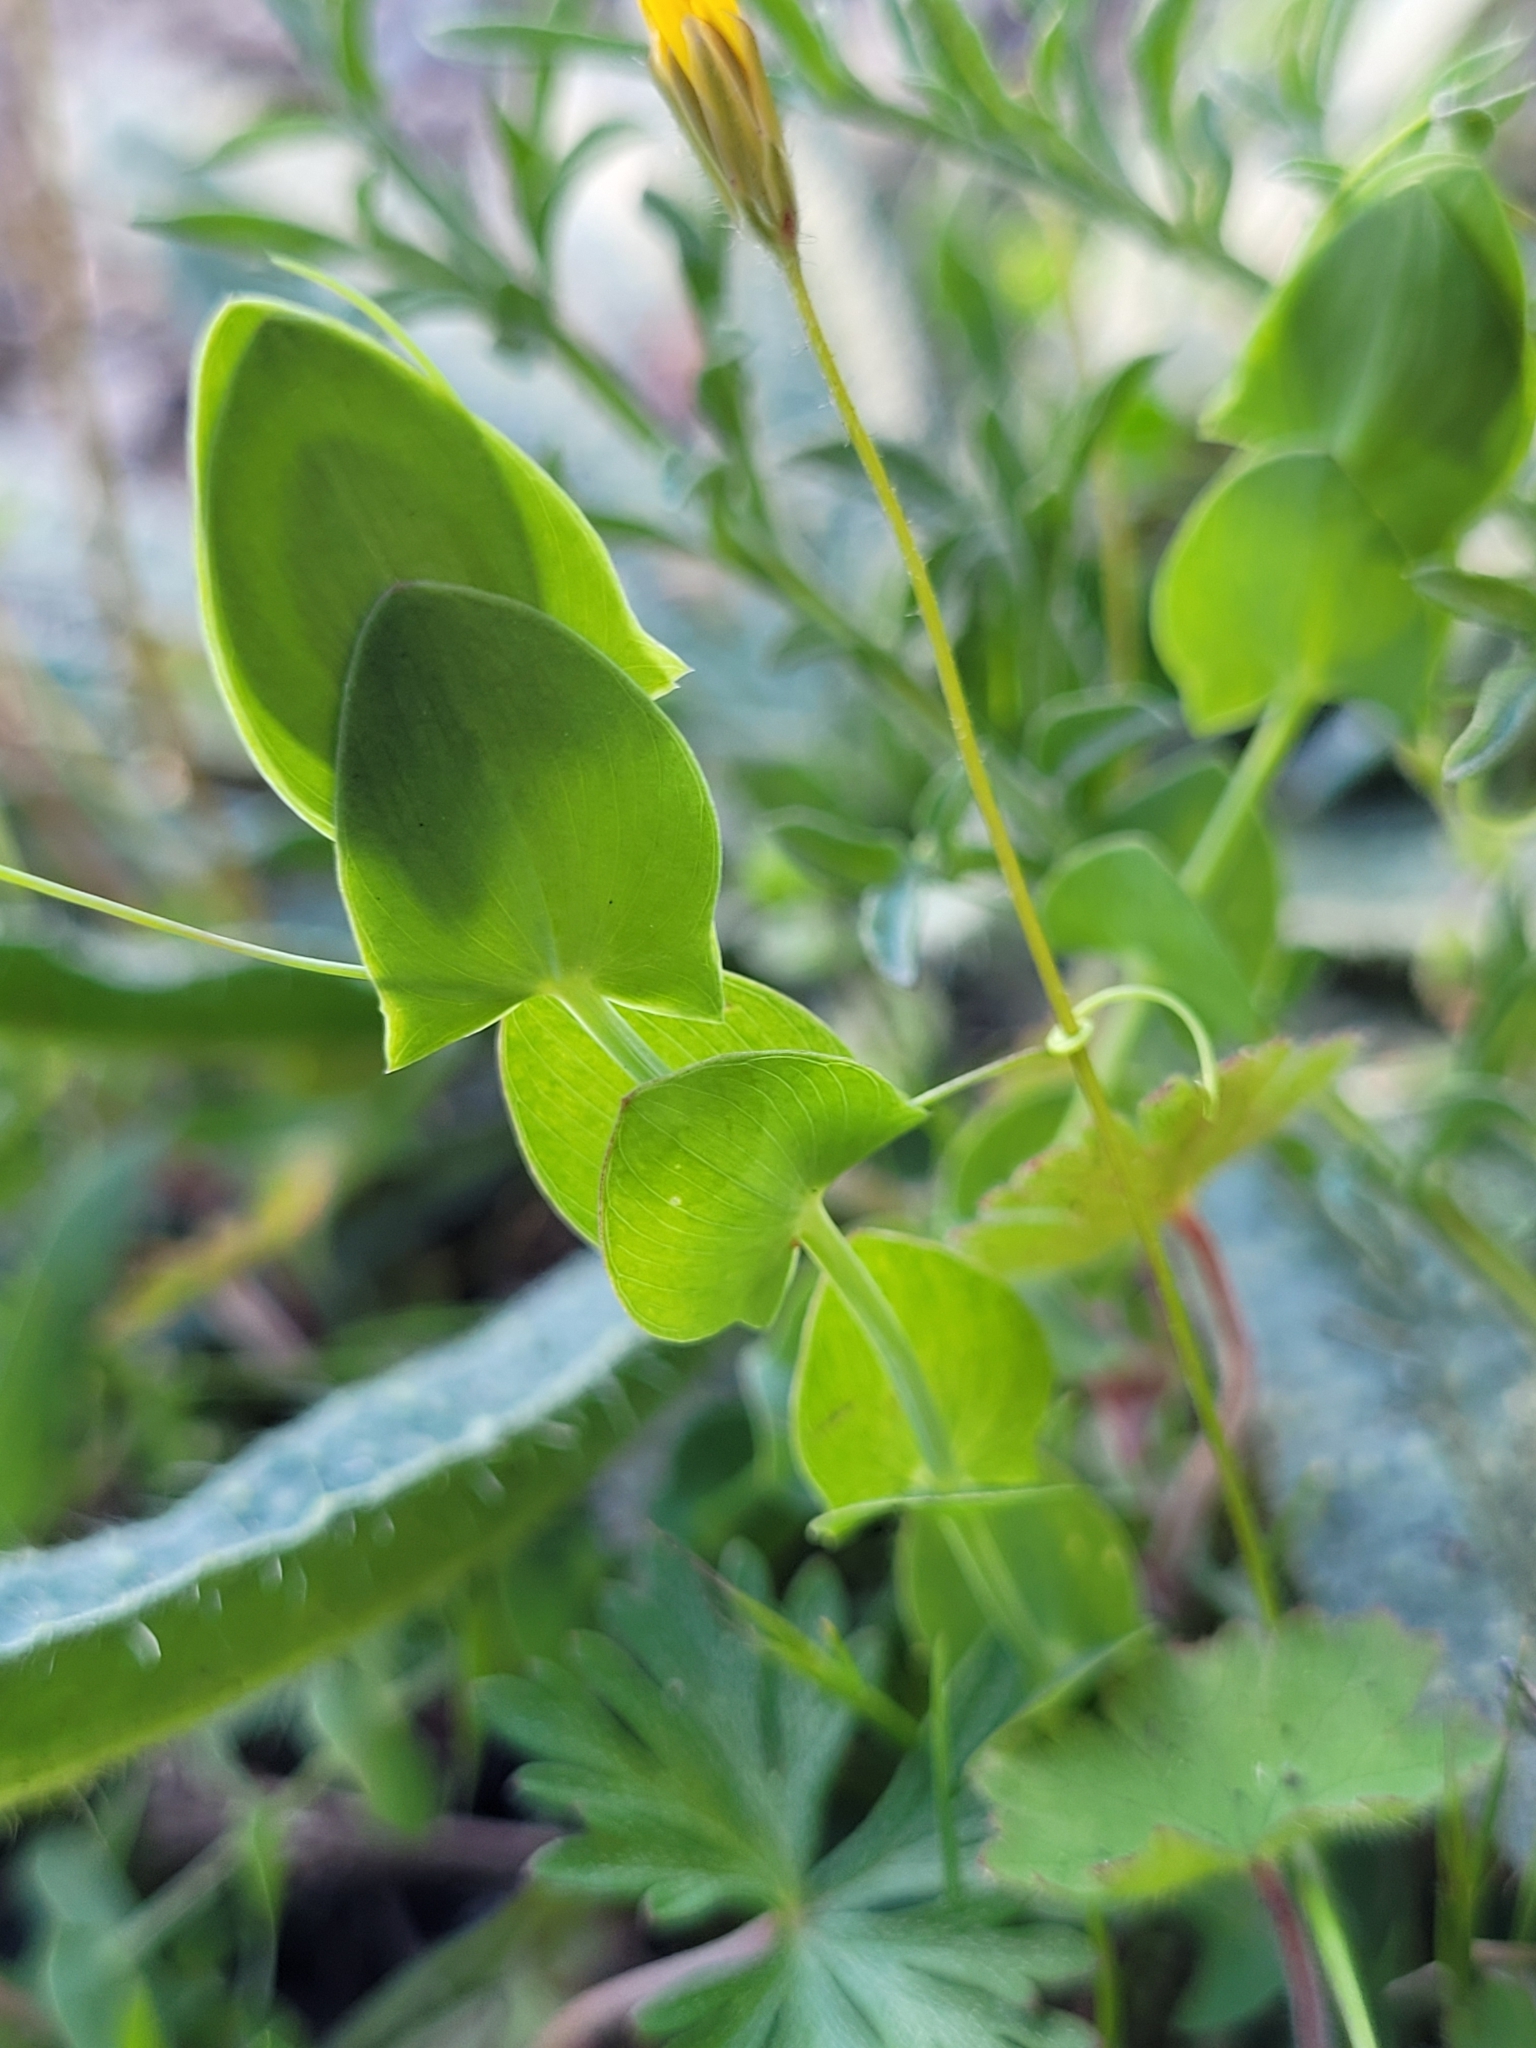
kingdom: Plantae
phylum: Tracheophyta
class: Magnoliopsida
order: Fabales
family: Fabaceae
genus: Lathyrus
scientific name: Lathyrus aphaca
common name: Yellow vetchling
